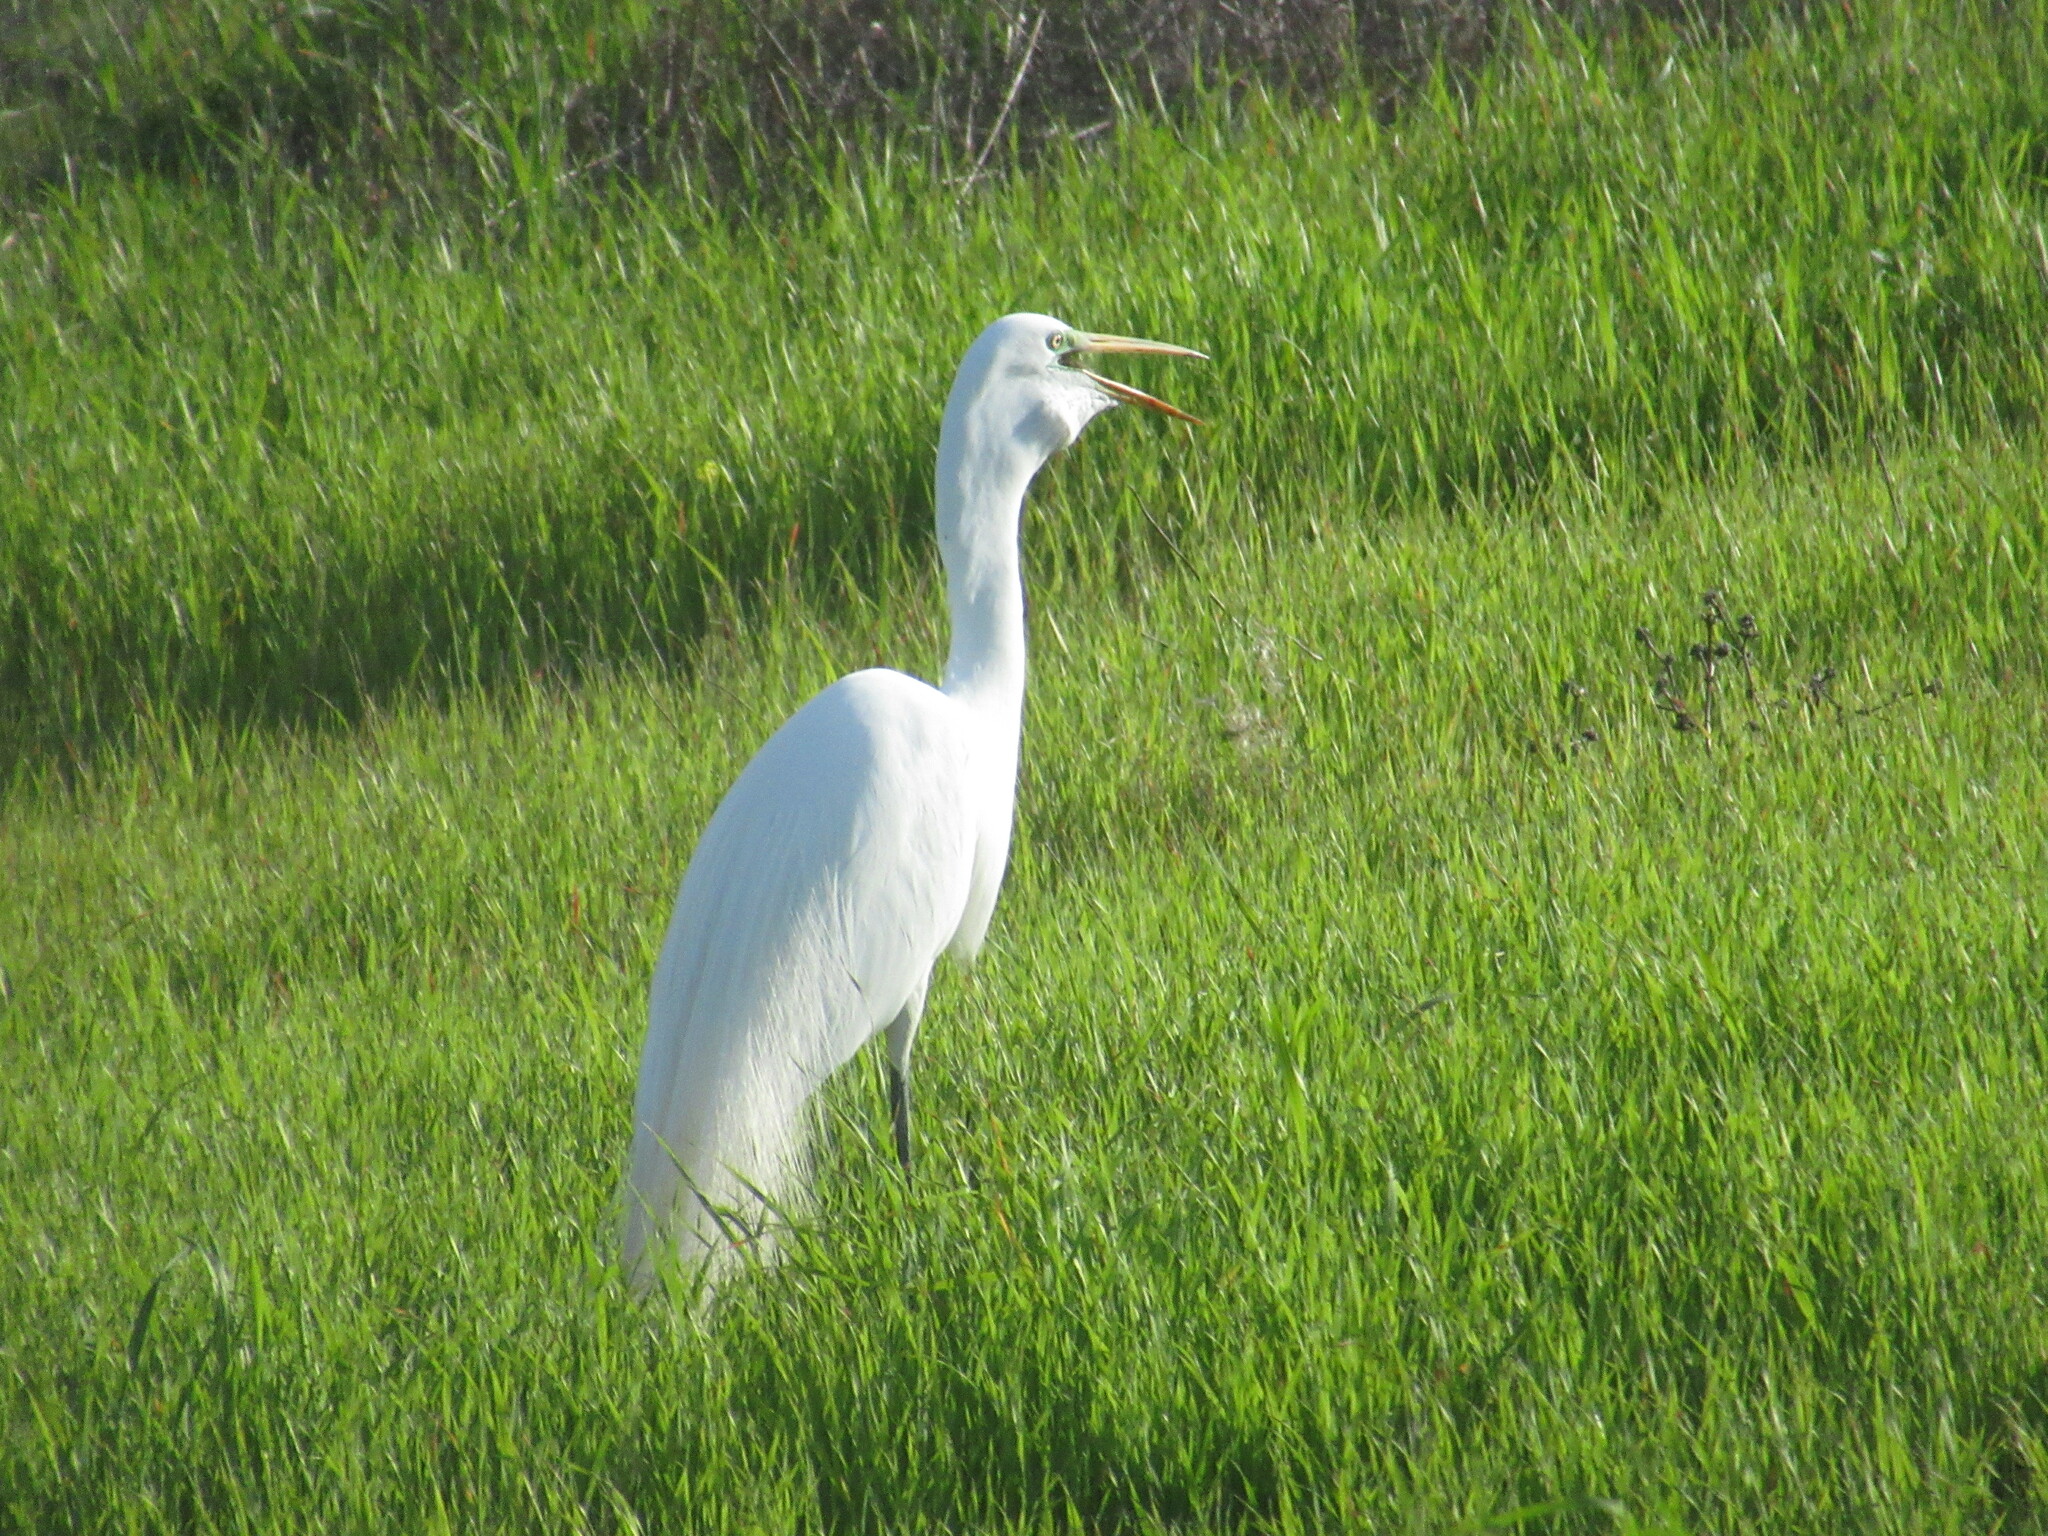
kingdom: Animalia
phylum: Chordata
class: Aves
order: Pelecaniformes
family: Ardeidae
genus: Ardea
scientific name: Ardea alba
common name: Great egret
